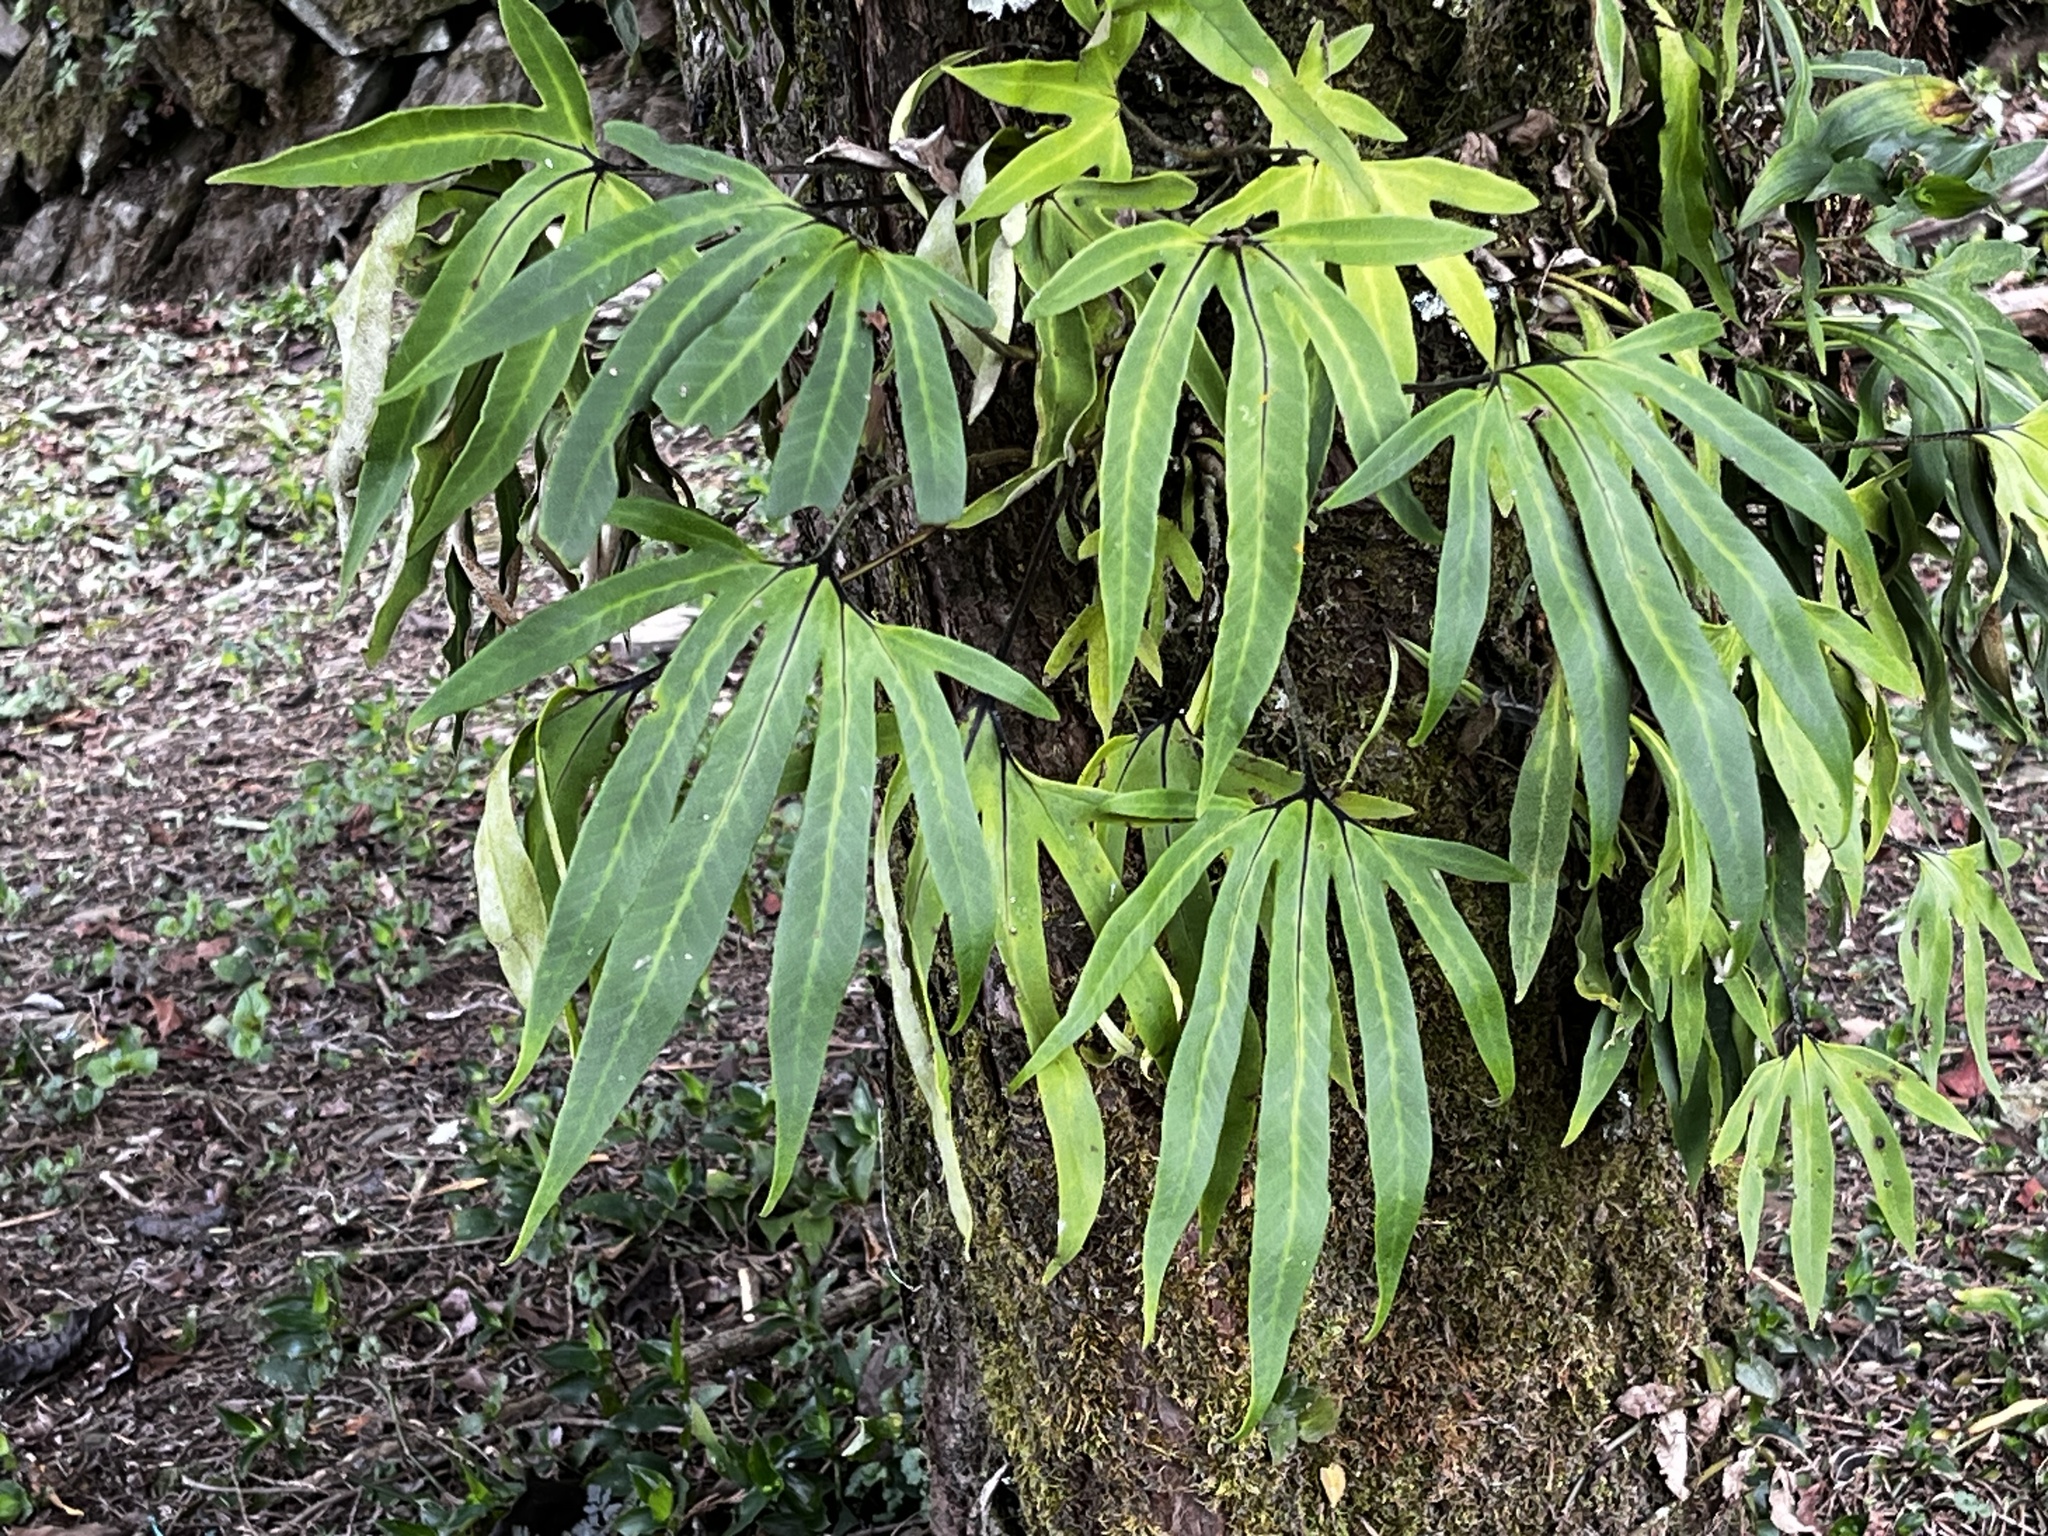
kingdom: Plantae
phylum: Tracheophyta
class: Polypodiopsida
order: Polypodiales
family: Polypodiaceae
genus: Pyrrosia
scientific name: Pyrrosia polydactyla
